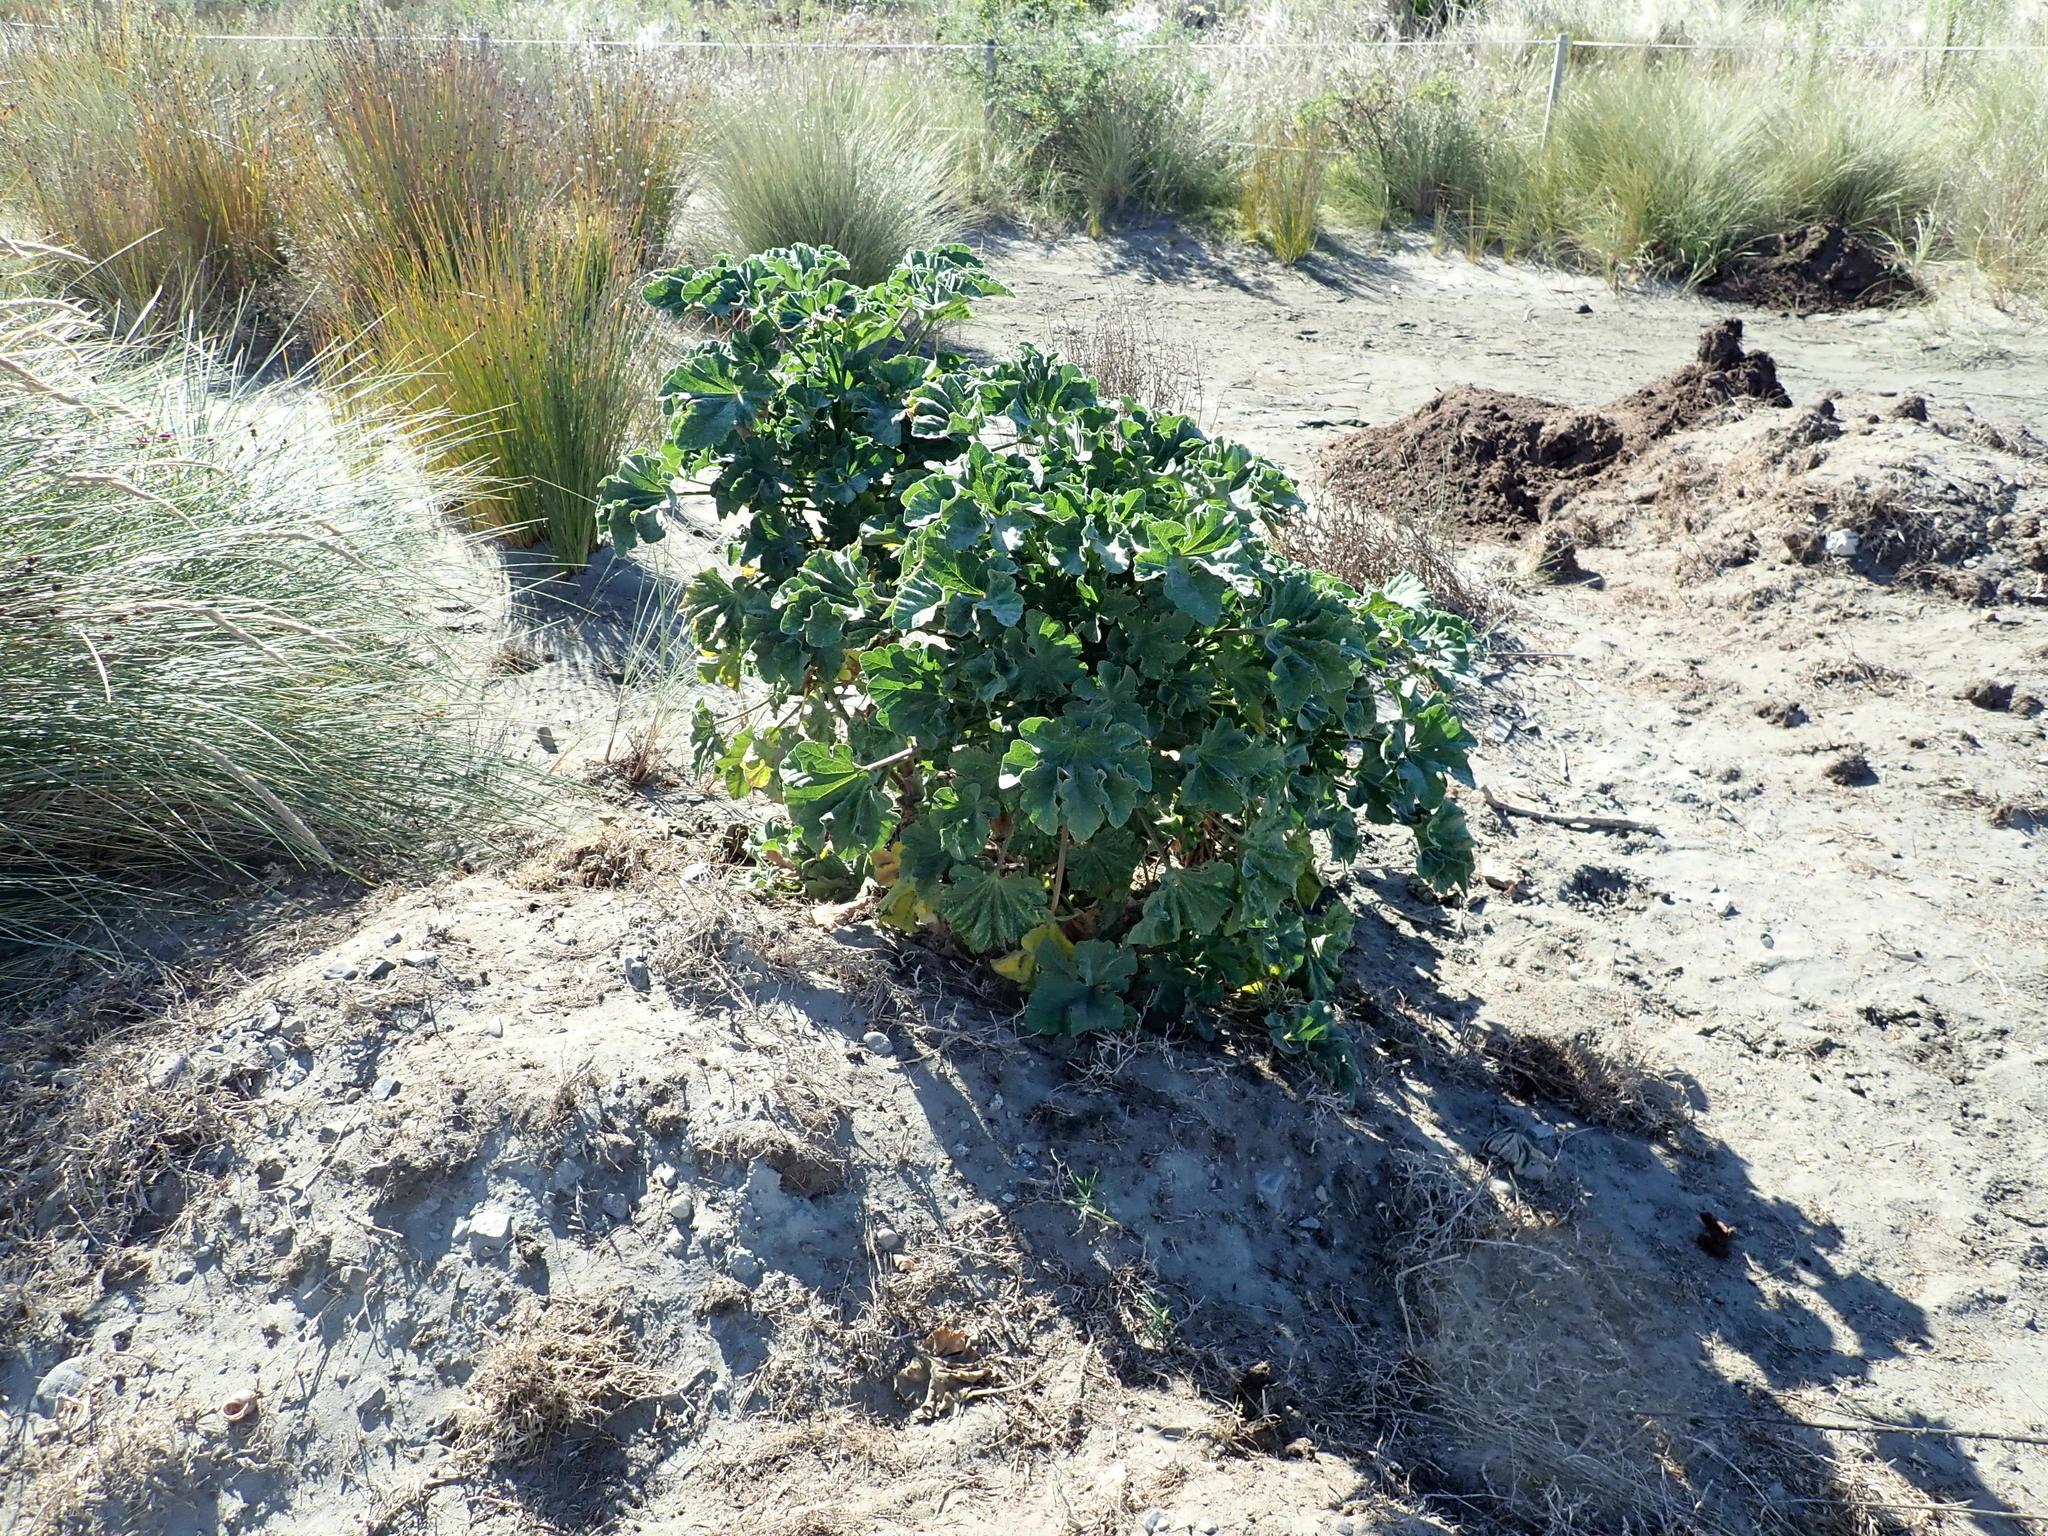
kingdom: Plantae
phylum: Tracheophyta
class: Magnoliopsida
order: Malvales
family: Malvaceae
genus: Malva
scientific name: Malva arborea
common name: Tree mallow
